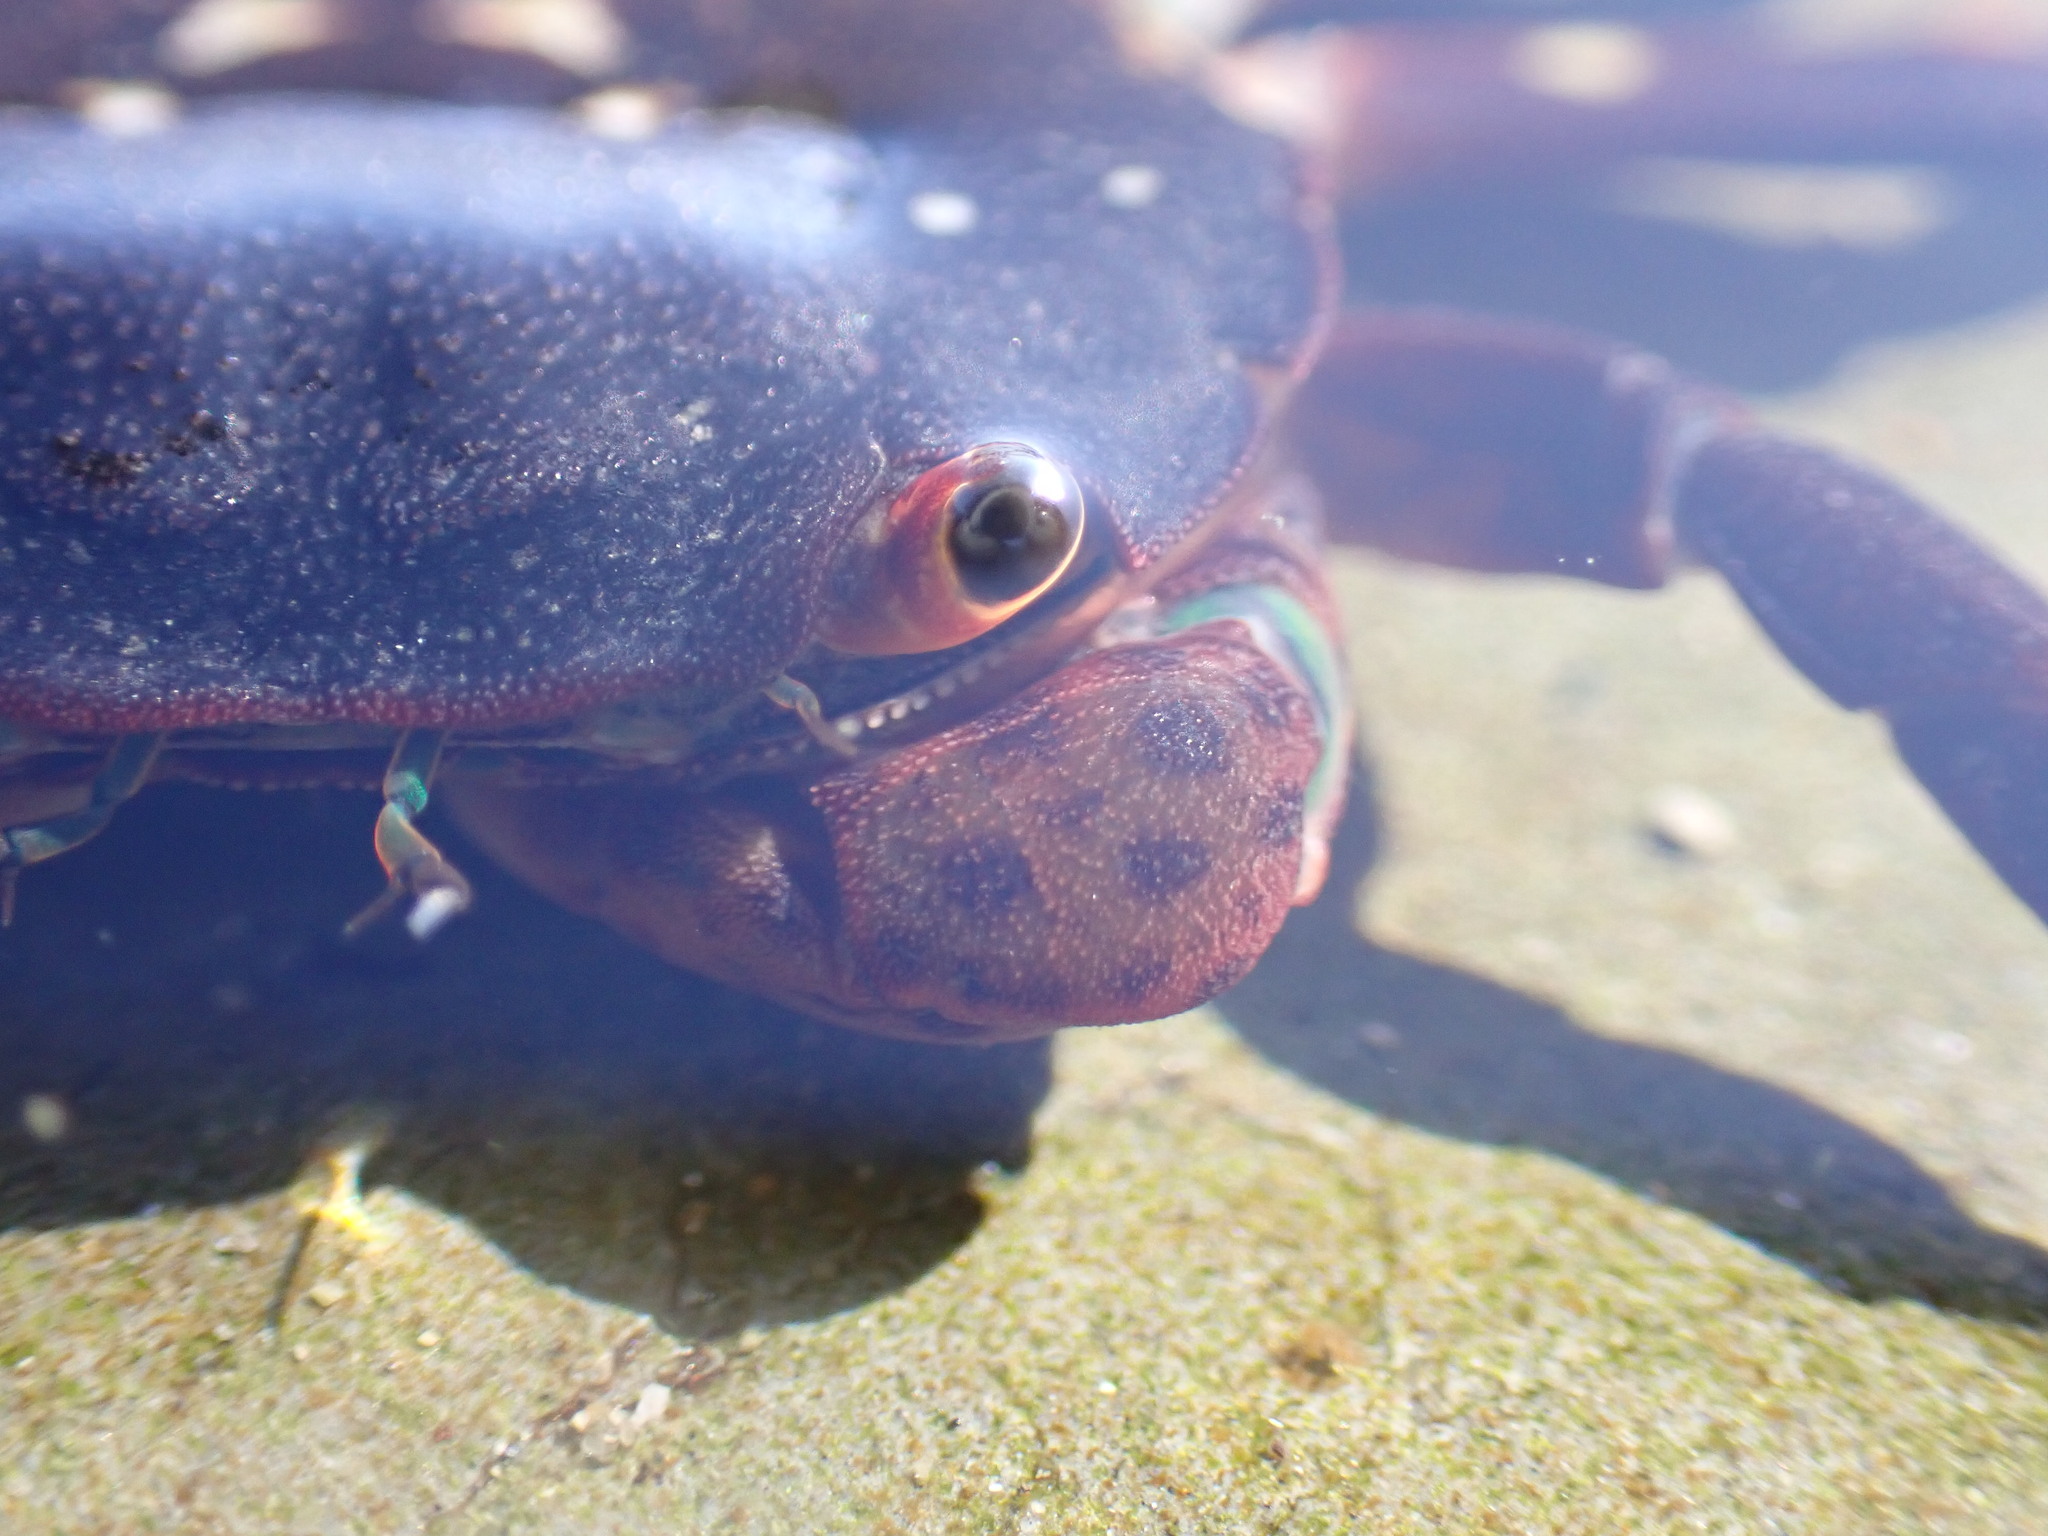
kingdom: Animalia
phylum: Arthropoda
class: Malacostraca
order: Decapoda
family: Varunidae
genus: Hemigrapsus
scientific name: Hemigrapsus nudus
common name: Purple shore crab
